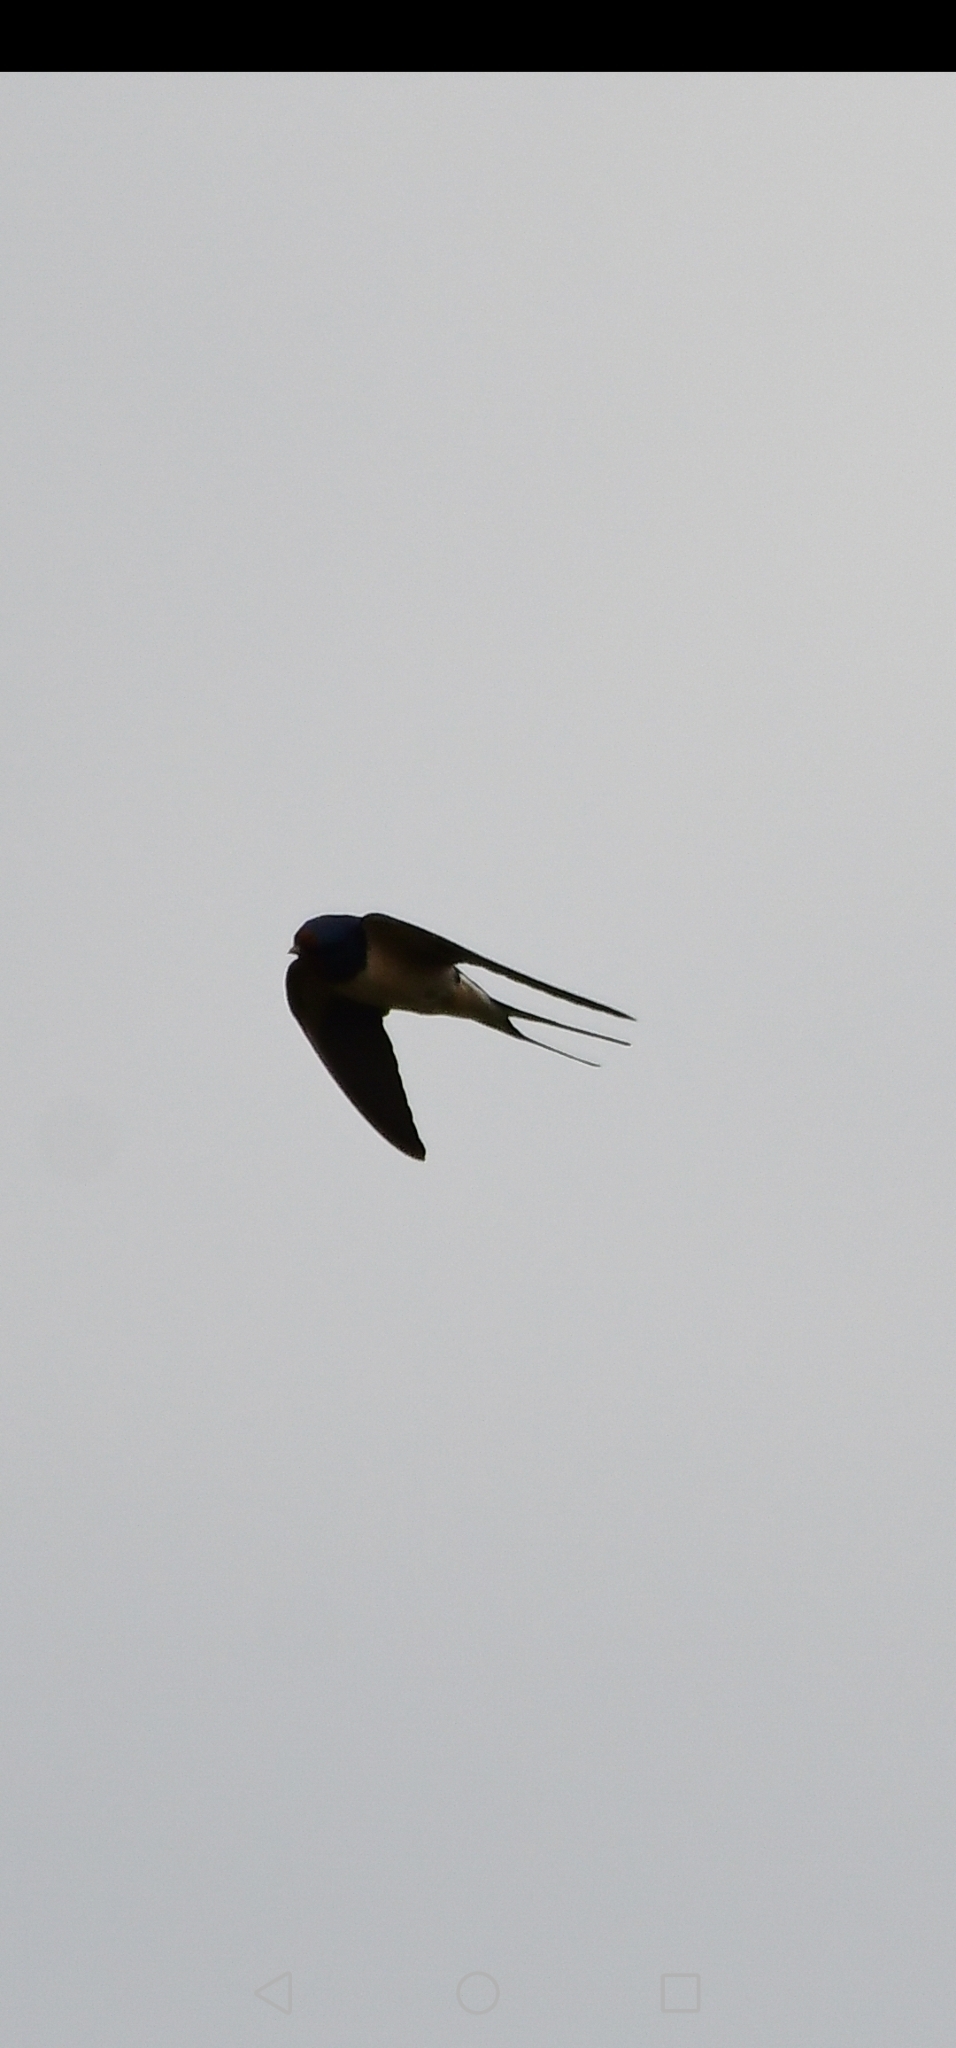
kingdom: Animalia
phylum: Chordata
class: Aves
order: Passeriformes
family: Hirundinidae
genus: Hirundo
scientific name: Hirundo rustica
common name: Barn swallow
